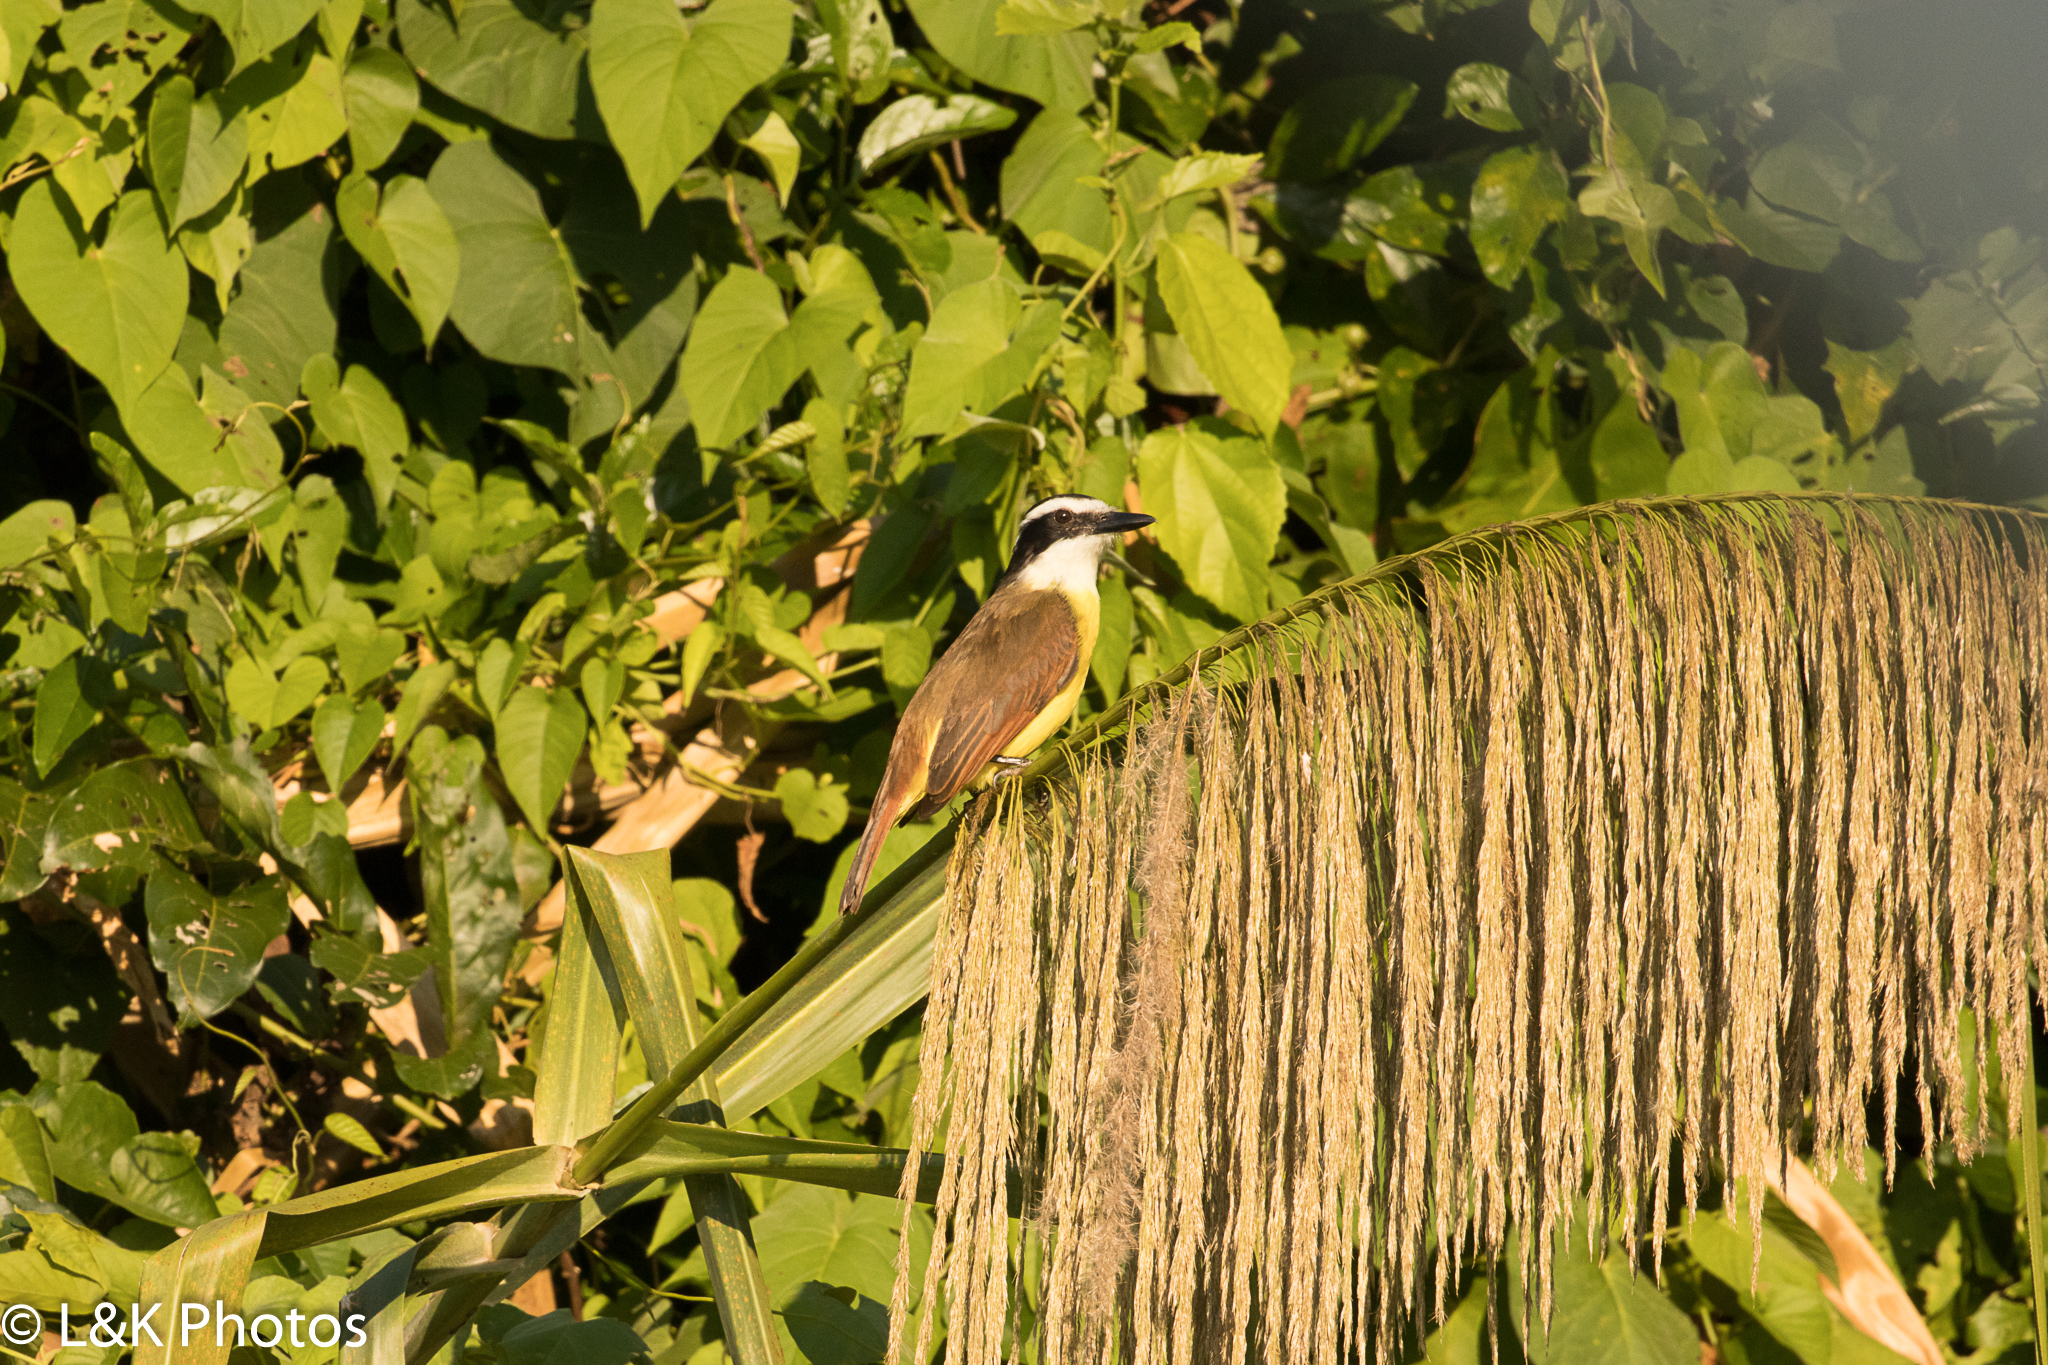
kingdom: Animalia
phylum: Chordata
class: Aves
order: Passeriformes
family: Tyrannidae
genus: Pitangus
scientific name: Pitangus sulphuratus
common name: Great kiskadee
